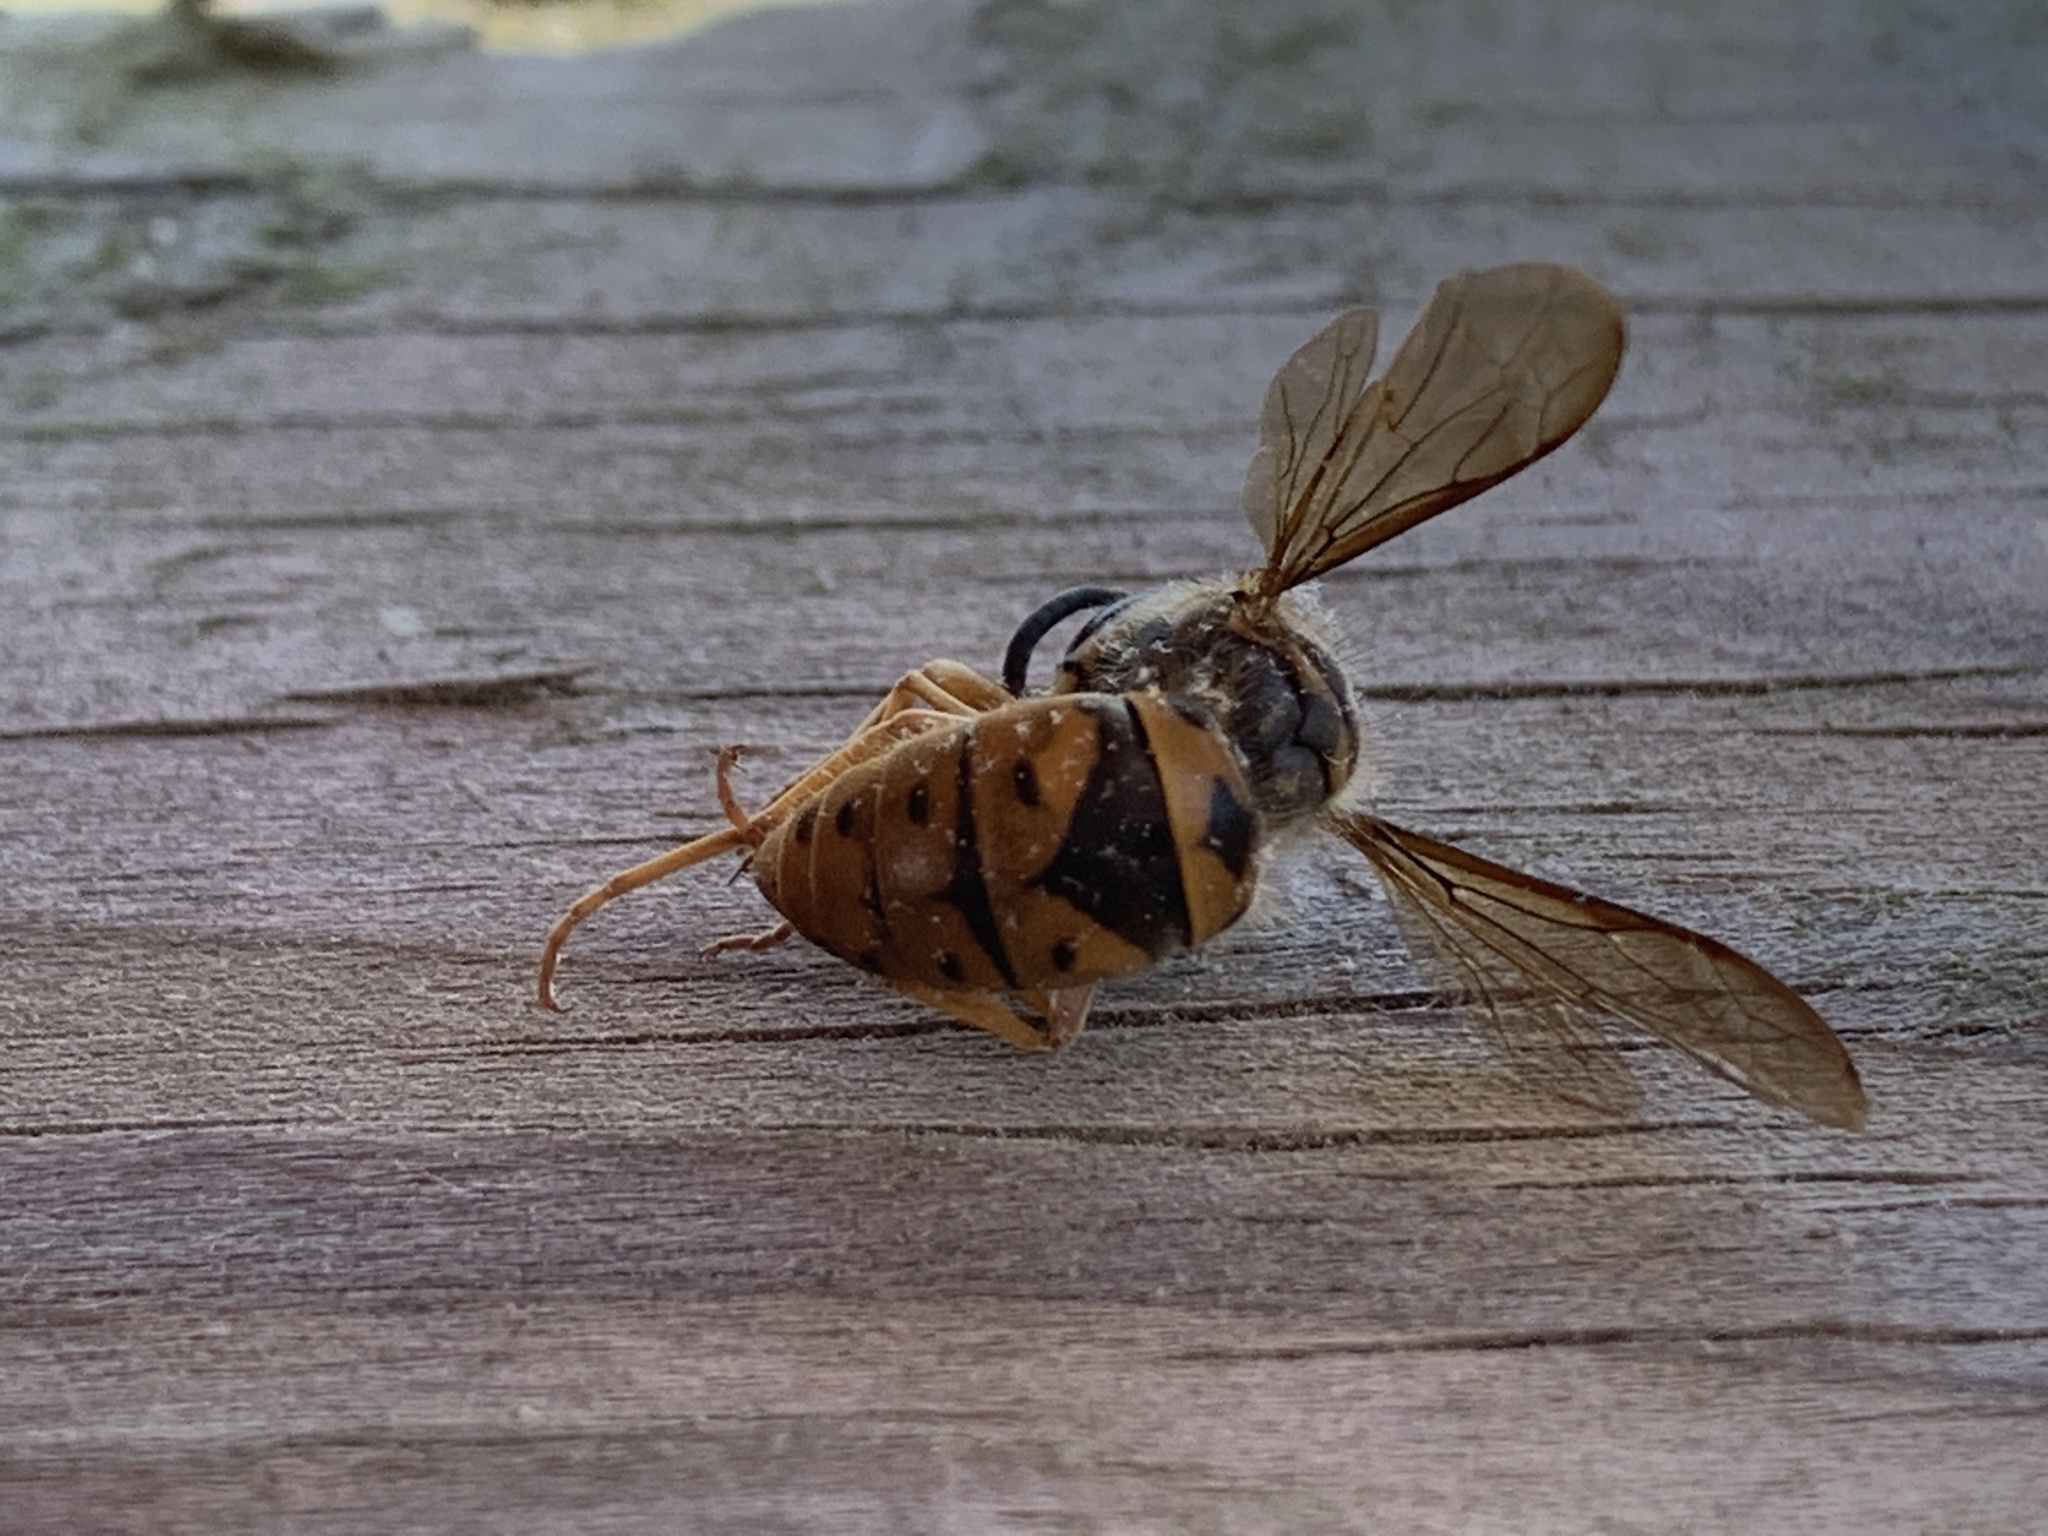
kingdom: Animalia
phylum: Arthropoda
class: Insecta
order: Hymenoptera
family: Vespidae
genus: Vespula
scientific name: Vespula maculifrons
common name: Eastern yellowjacket
